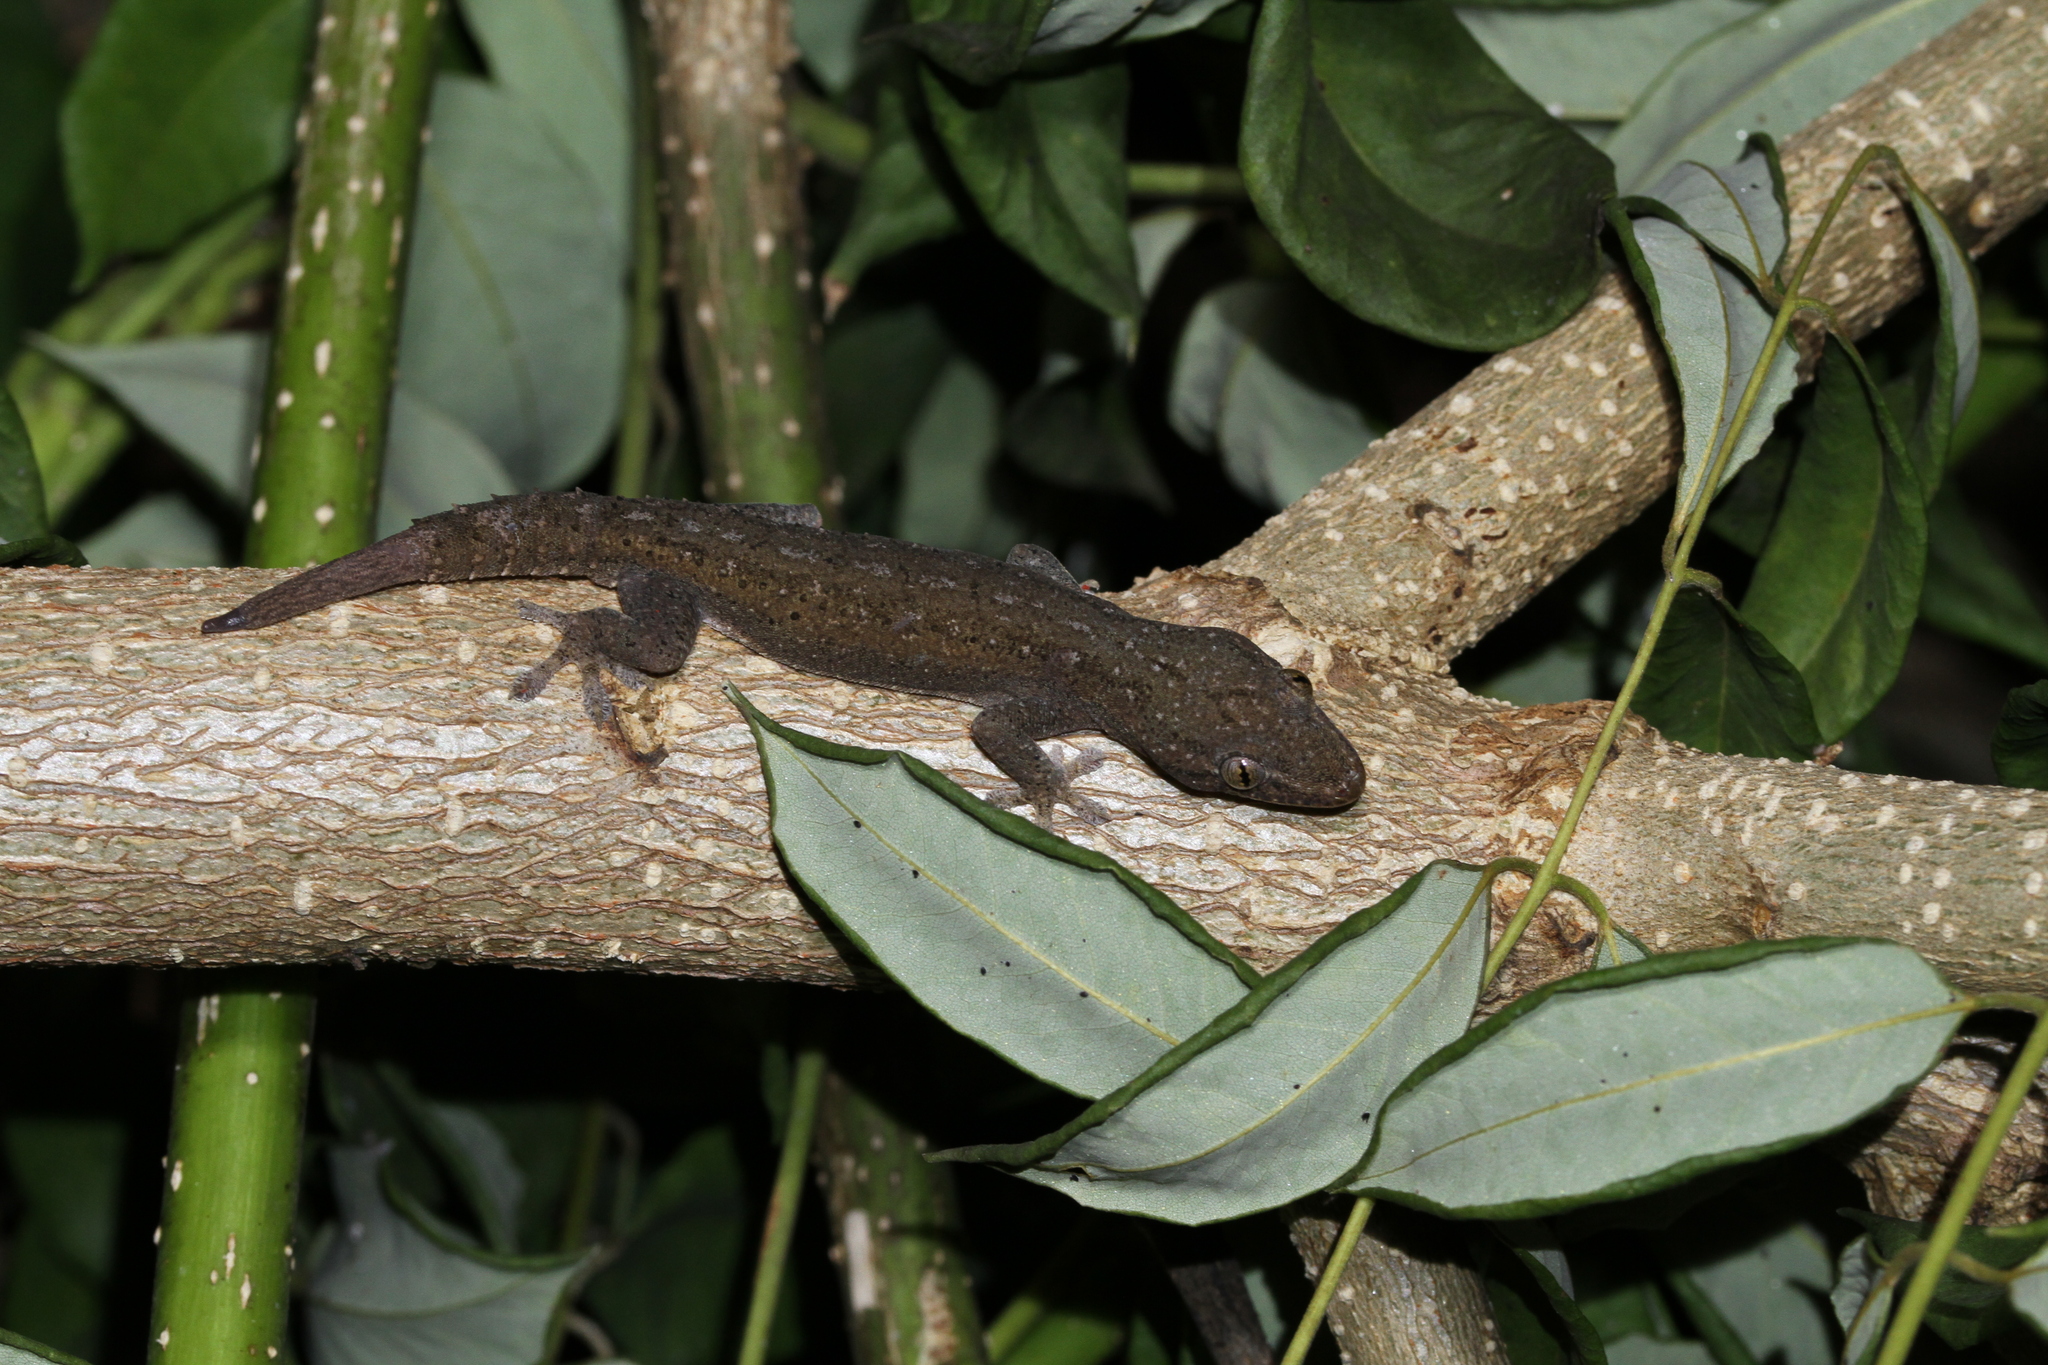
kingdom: Animalia
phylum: Chordata
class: Squamata
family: Gekkonidae
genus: Hemidactylus
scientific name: Hemidactylus frenatus
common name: Common house gecko
